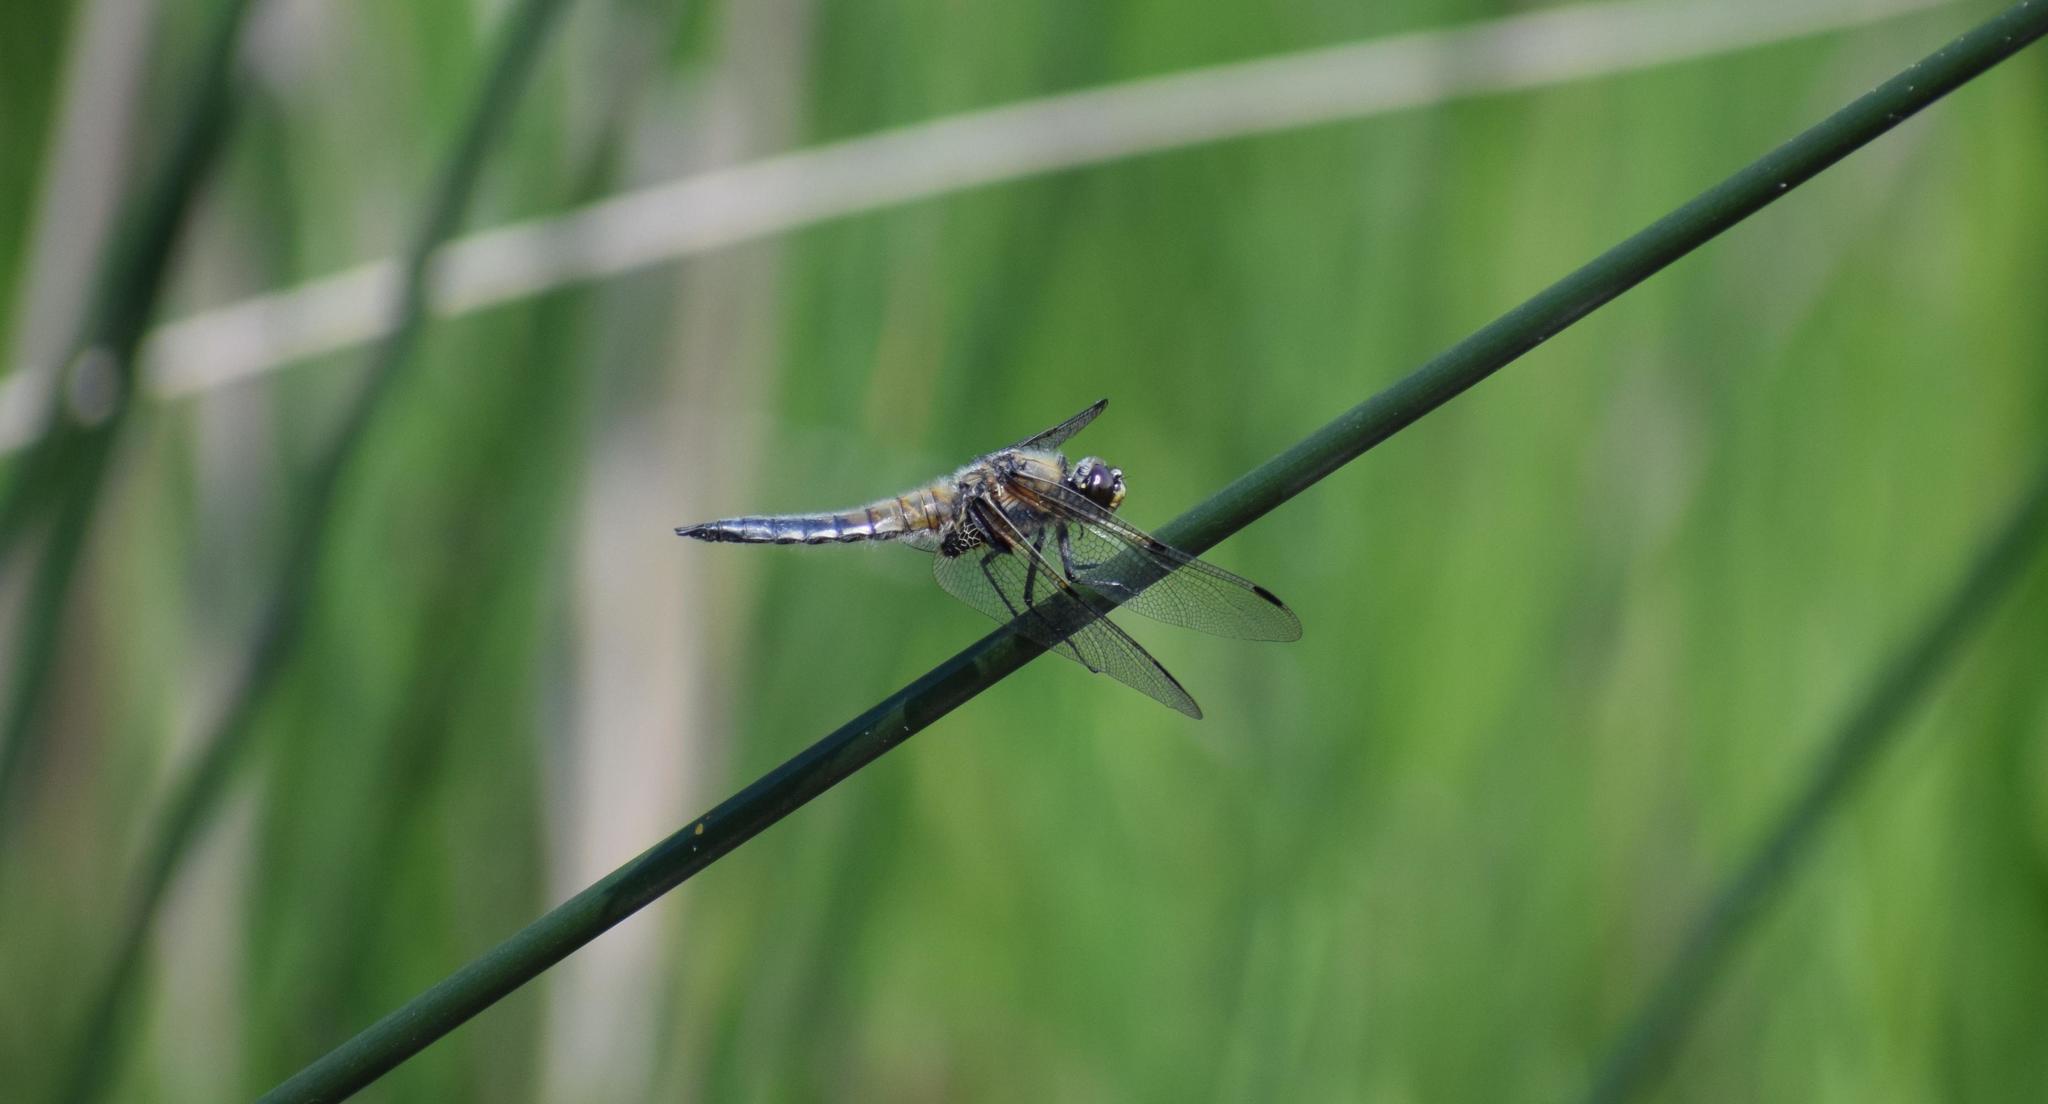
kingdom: Animalia
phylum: Arthropoda
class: Insecta
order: Odonata
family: Libellulidae
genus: Libellula
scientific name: Libellula quadrimaculata
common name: Four-spotted chaser
